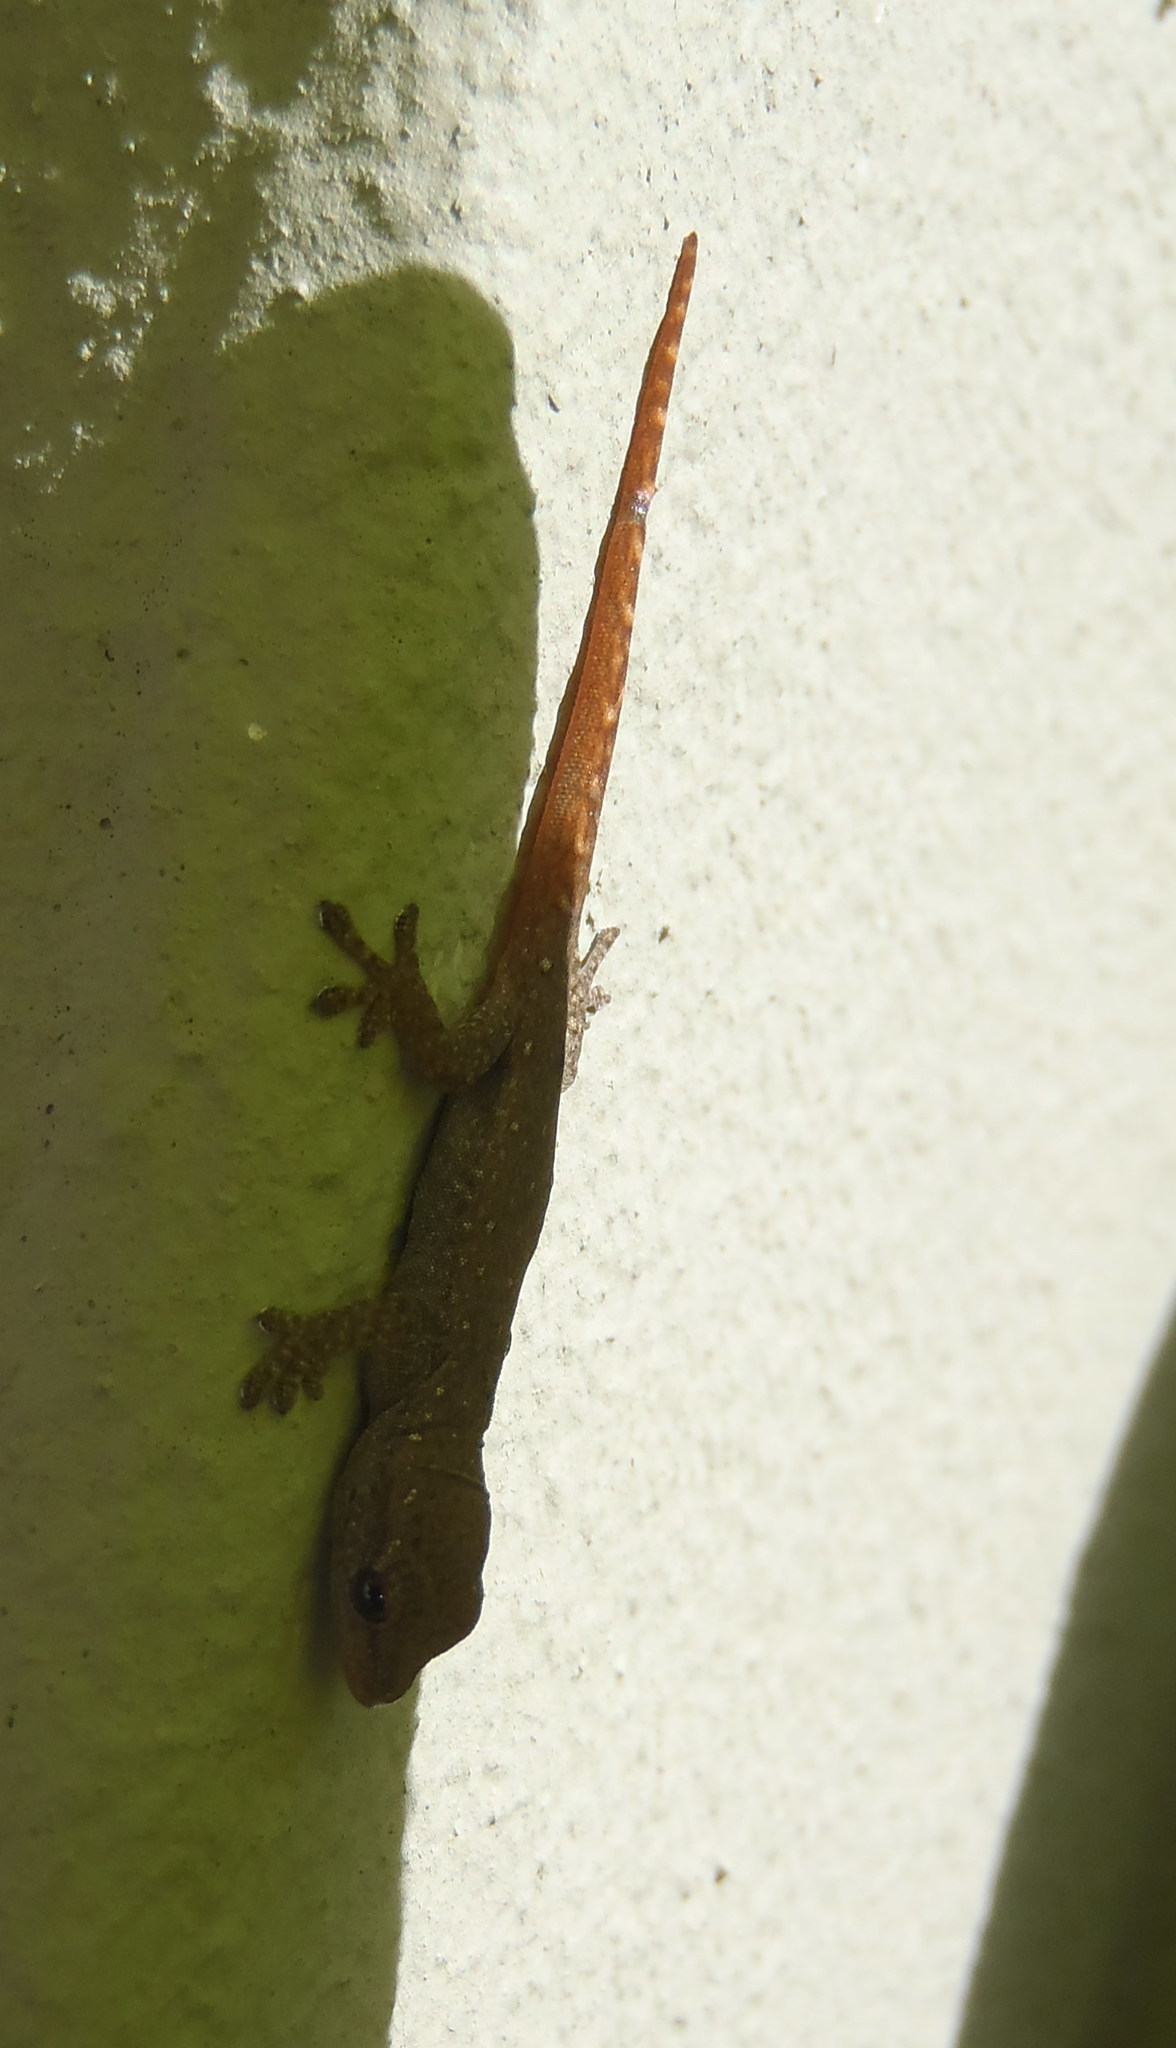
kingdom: Animalia
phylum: Chordata
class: Squamata
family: Gekkonidae
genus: Lygodactylus
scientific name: Lygodactylus capensis
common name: Cape dwarf gecko
